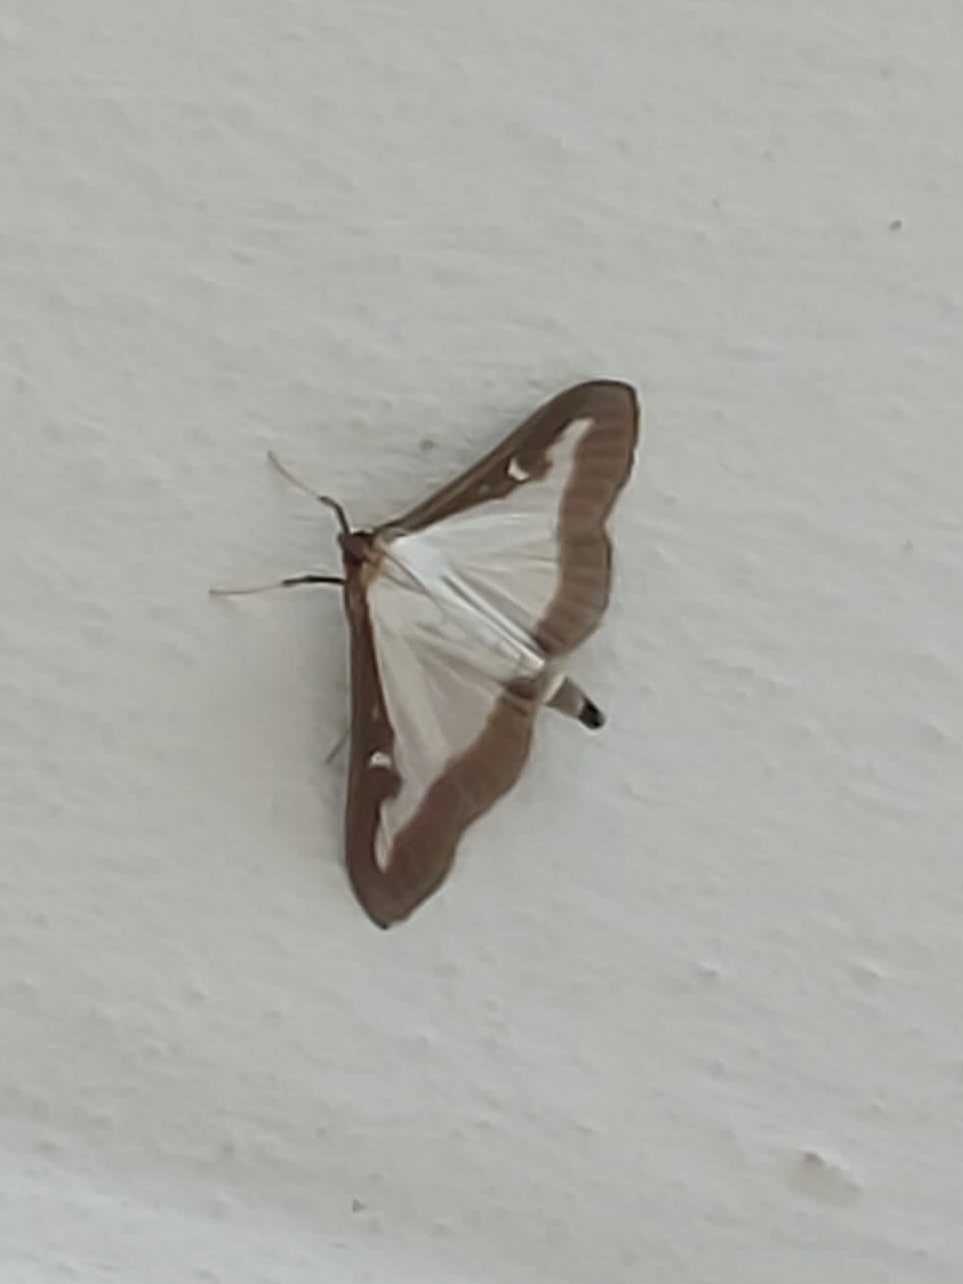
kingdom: Animalia
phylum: Arthropoda
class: Insecta
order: Lepidoptera
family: Crambidae
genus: Cydalima
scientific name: Cydalima perspectalis
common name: Box tree moth
